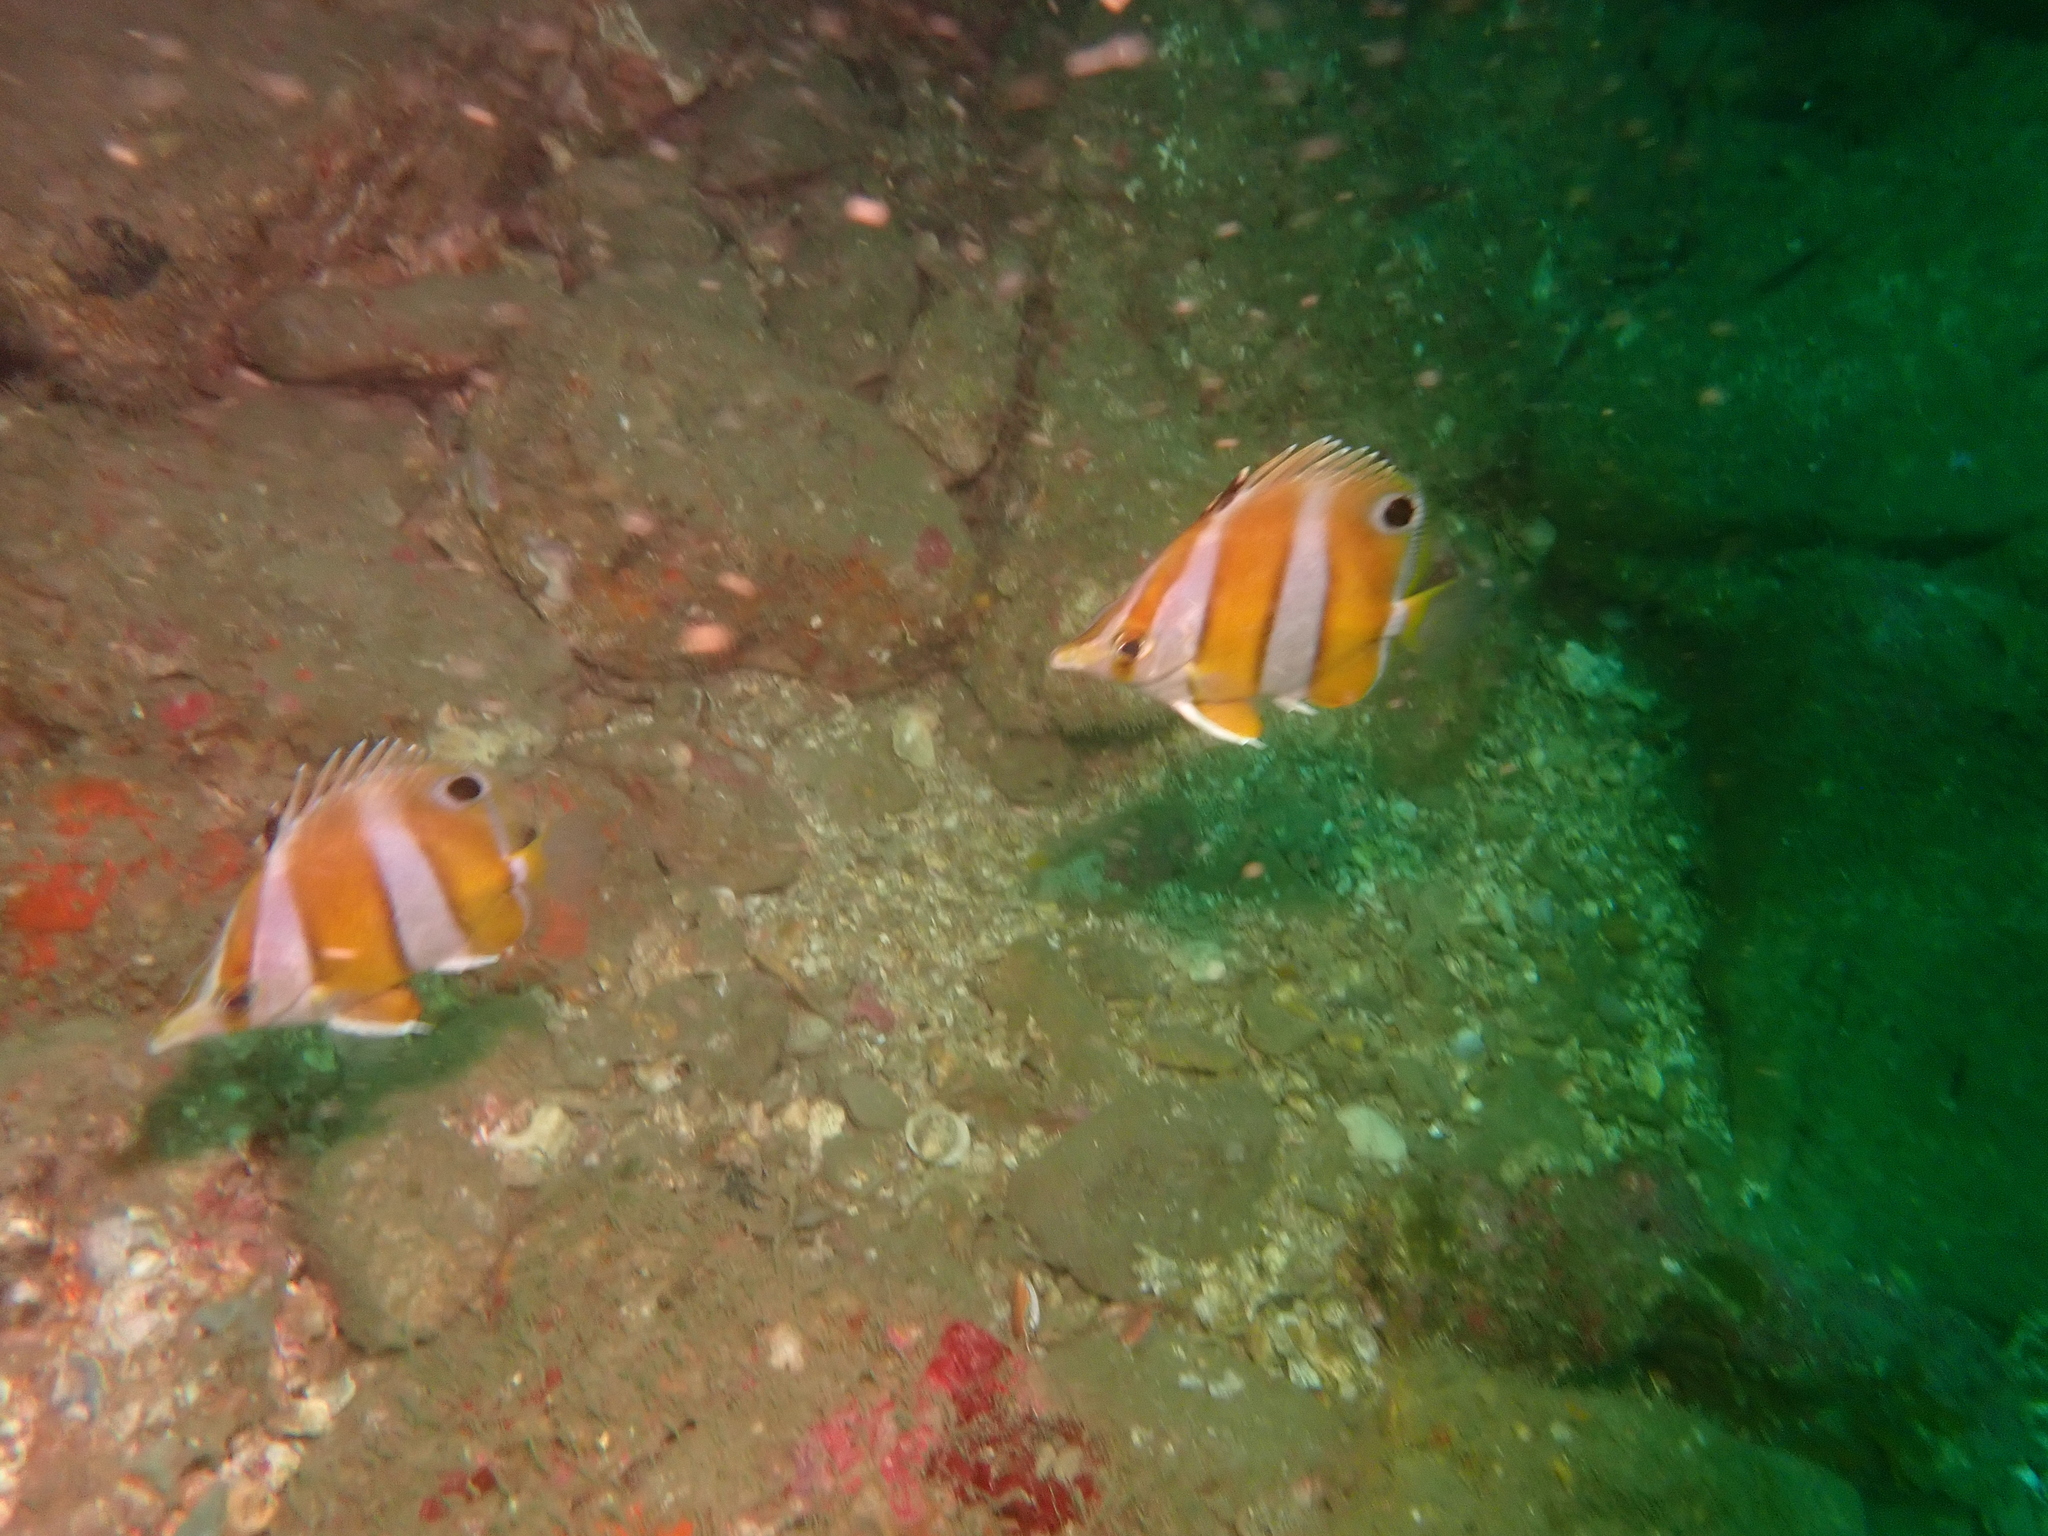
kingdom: Animalia
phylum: Chordata
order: Perciformes
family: Chaetodontidae
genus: Roa
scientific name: Roa modesta
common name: Brown-banded butterflyfish
